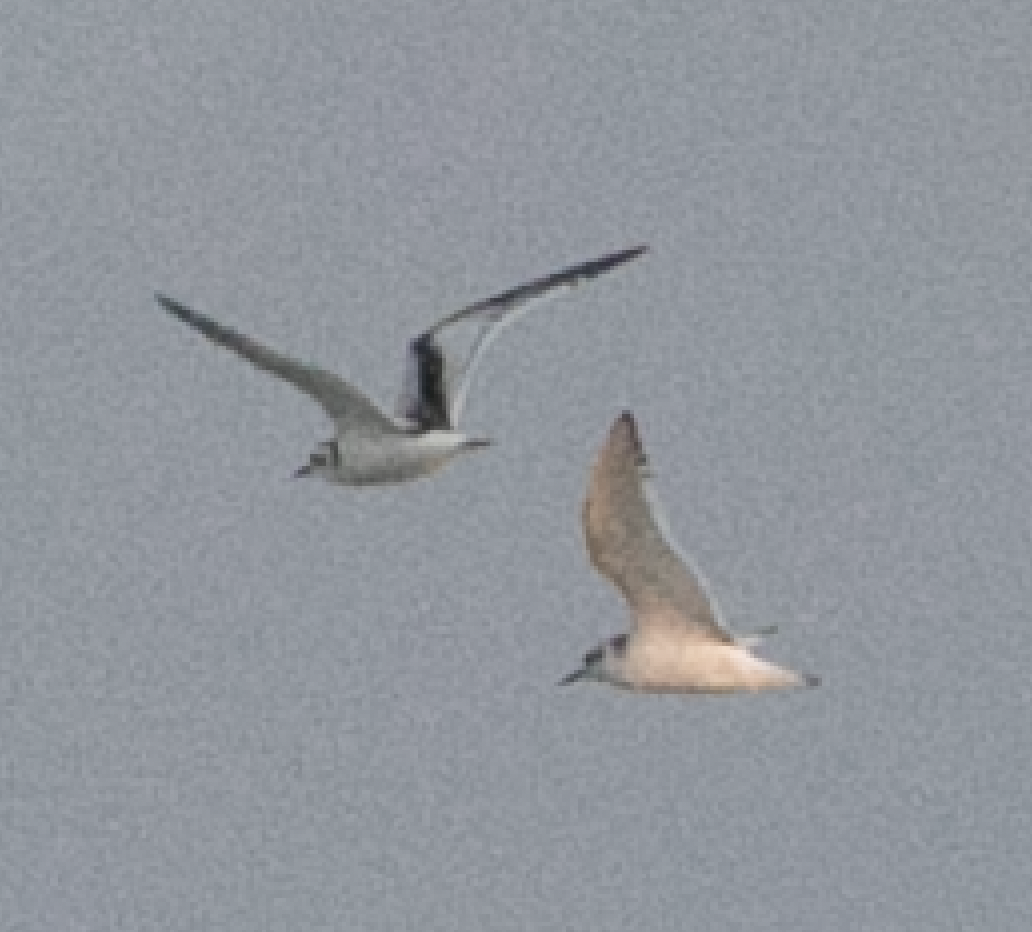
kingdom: Animalia
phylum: Chordata
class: Aves
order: Charadriiformes
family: Laridae
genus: Hydrocoloeus
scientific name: Hydrocoloeus minutus
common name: Little gull
